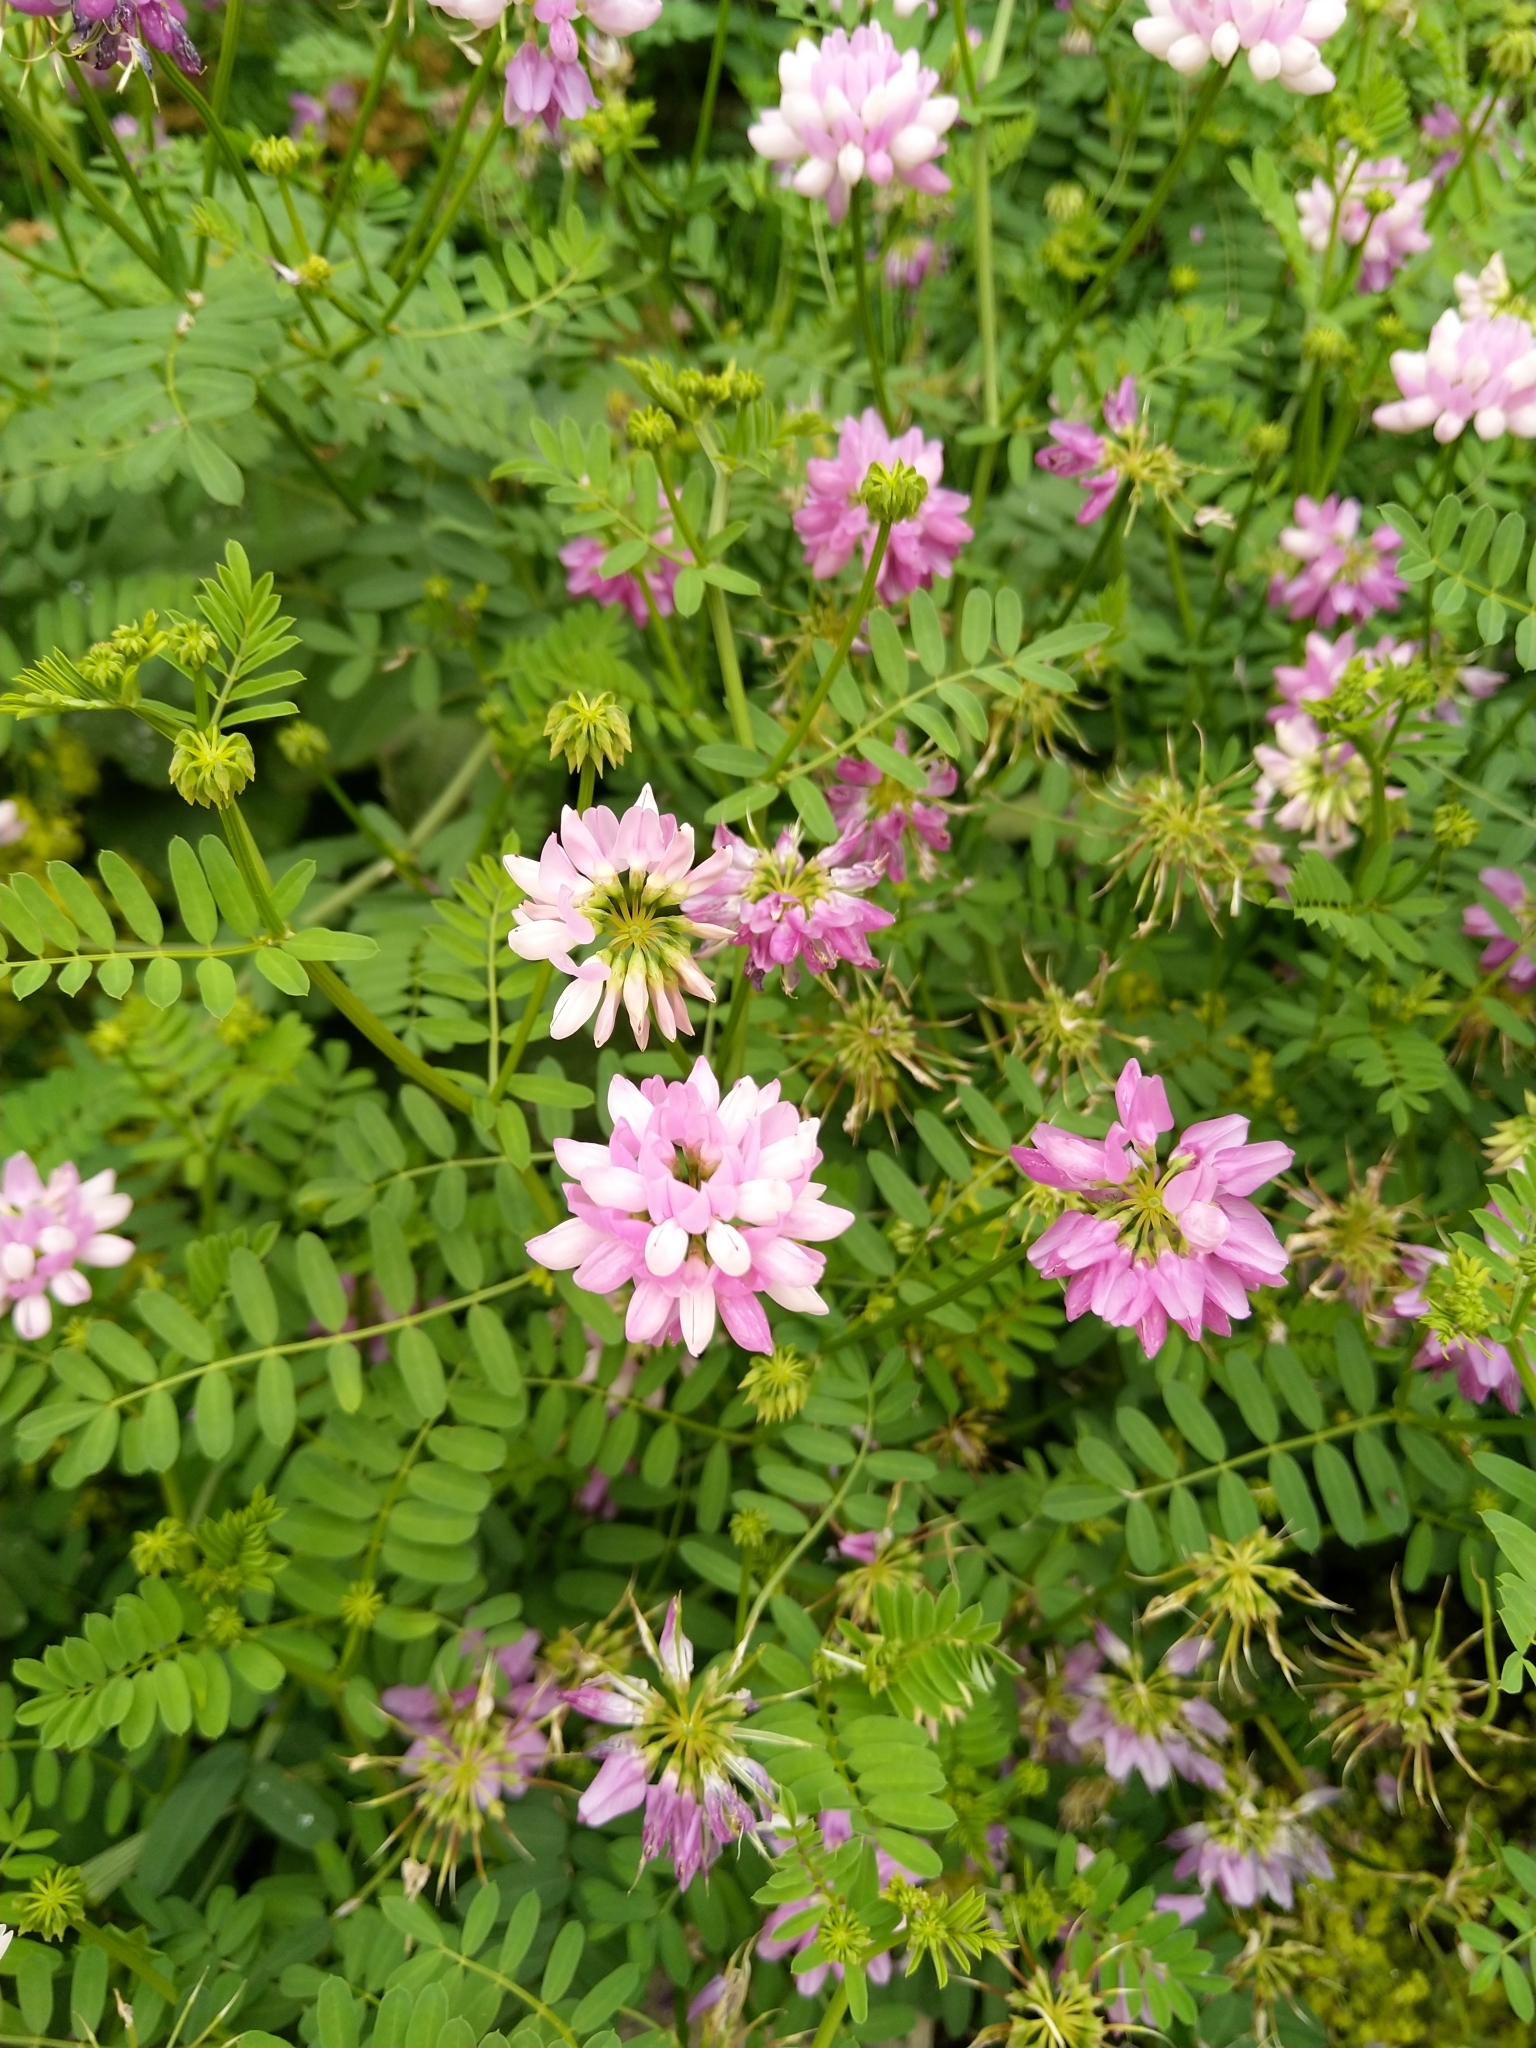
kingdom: Plantae
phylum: Tracheophyta
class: Magnoliopsida
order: Fabales
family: Fabaceae
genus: Coronilla
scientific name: Coronilla varia
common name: Crownvetch
